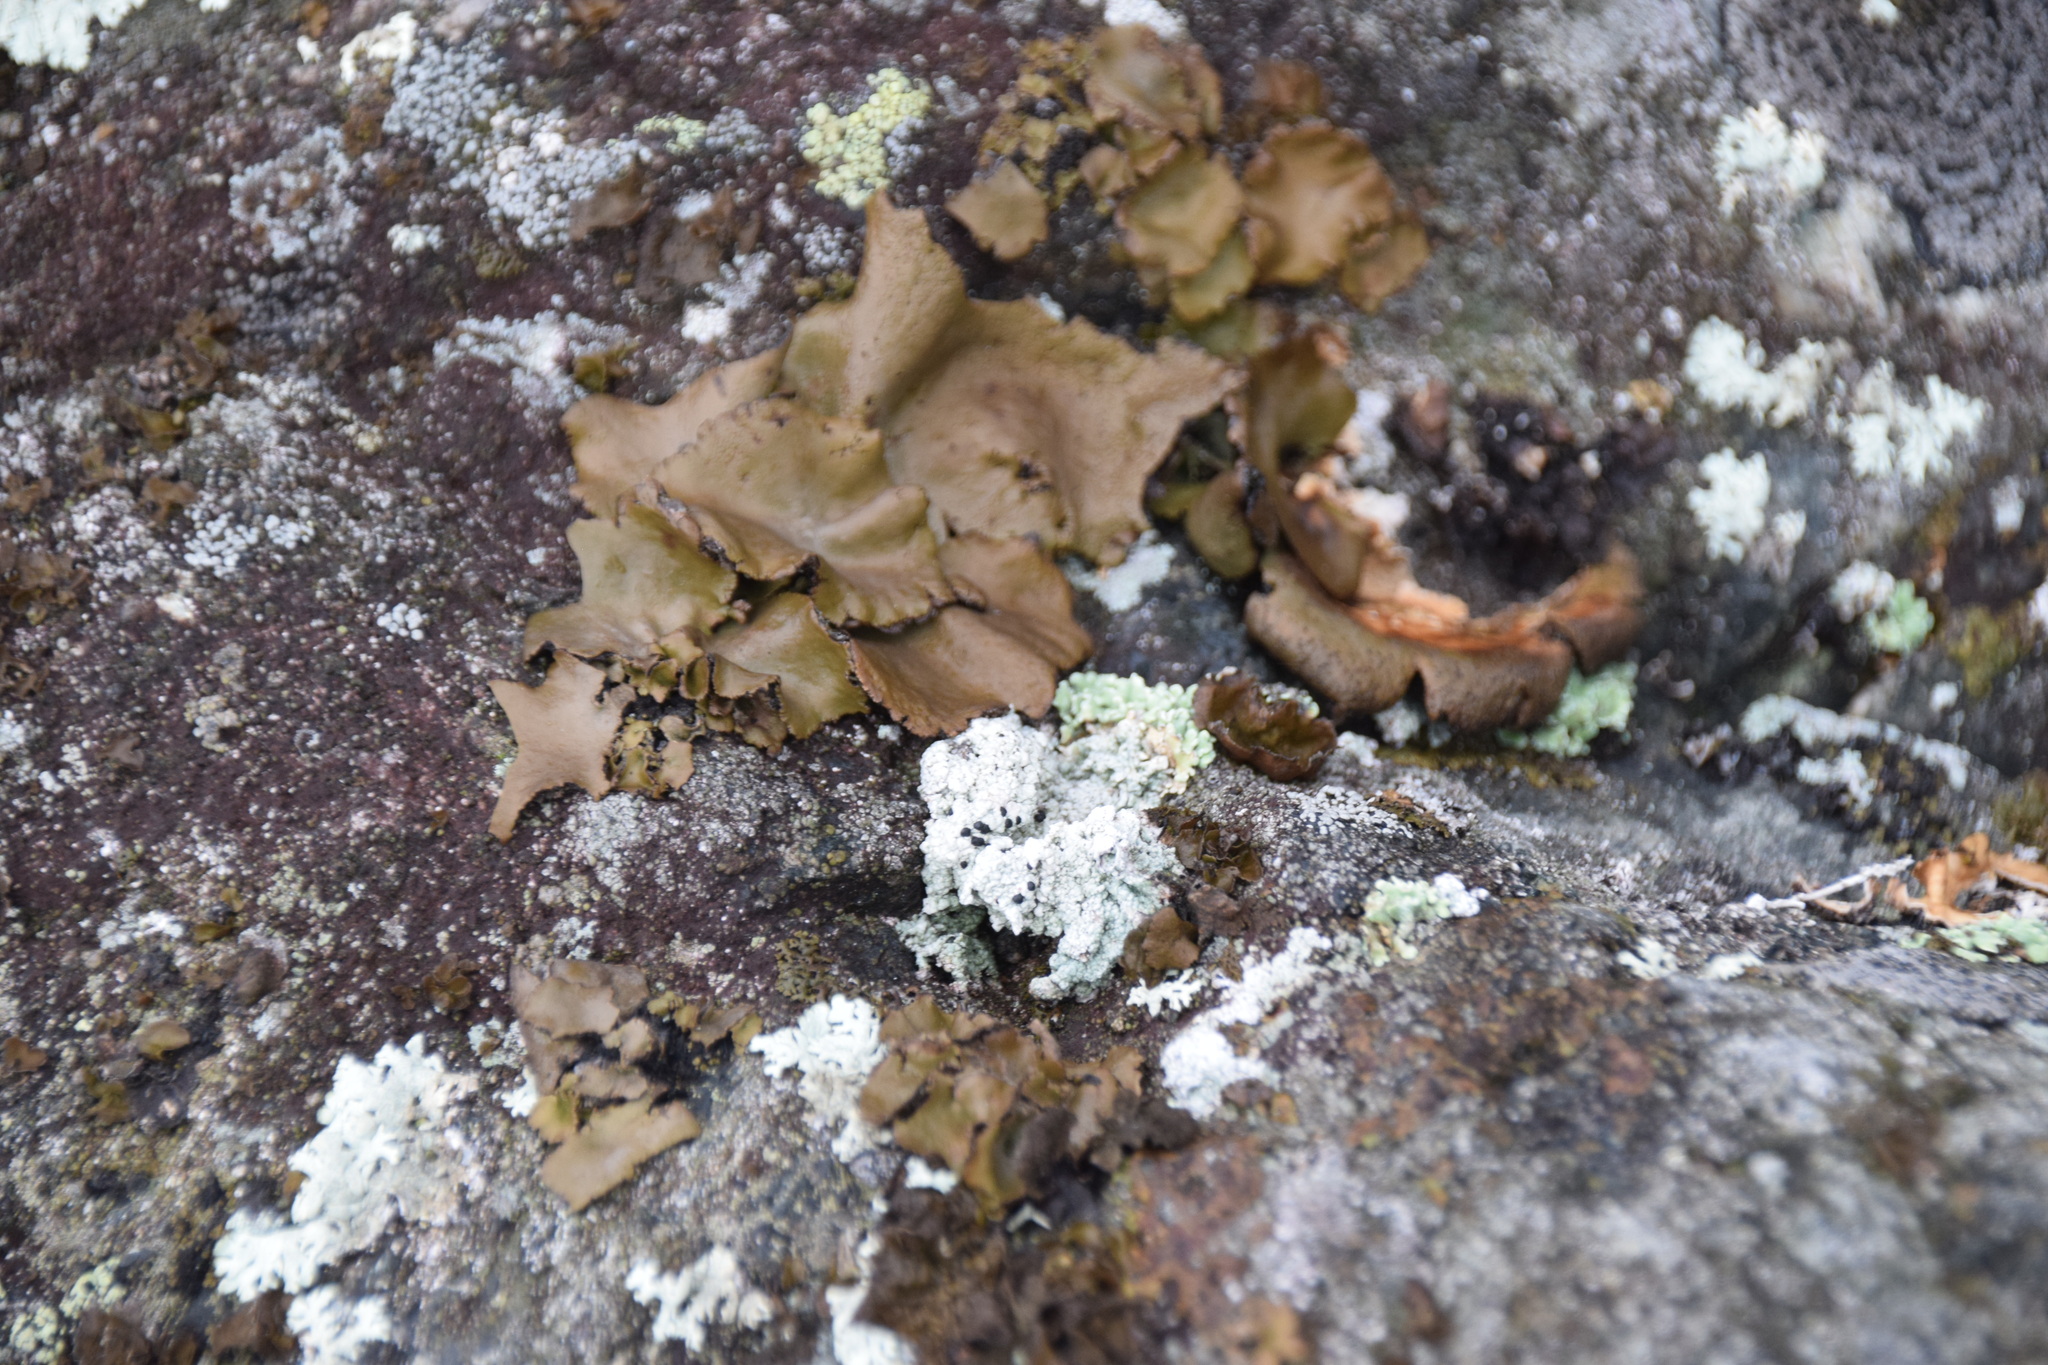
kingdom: Fungi
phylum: Ascomycota
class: Lecanoromycetes
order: Umbilicariales
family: Umbilicariaceae
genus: Umbilicaria
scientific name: Umbilicaria muhlenbergii
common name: Lesser rocktripe
